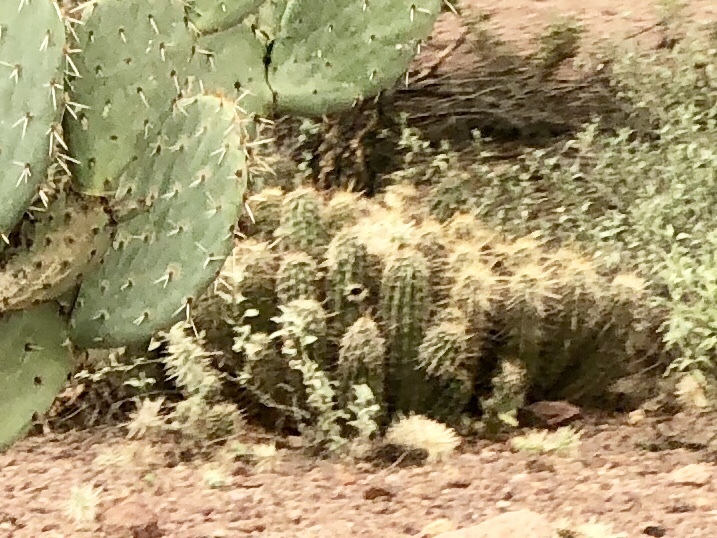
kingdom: Plantae
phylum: Tracheophyta
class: Magnoliopsida
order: Caryophyllales
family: Cactaceae
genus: Echinocereus
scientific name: Echinocereus fasciculatus
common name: Bundle hedgehog
